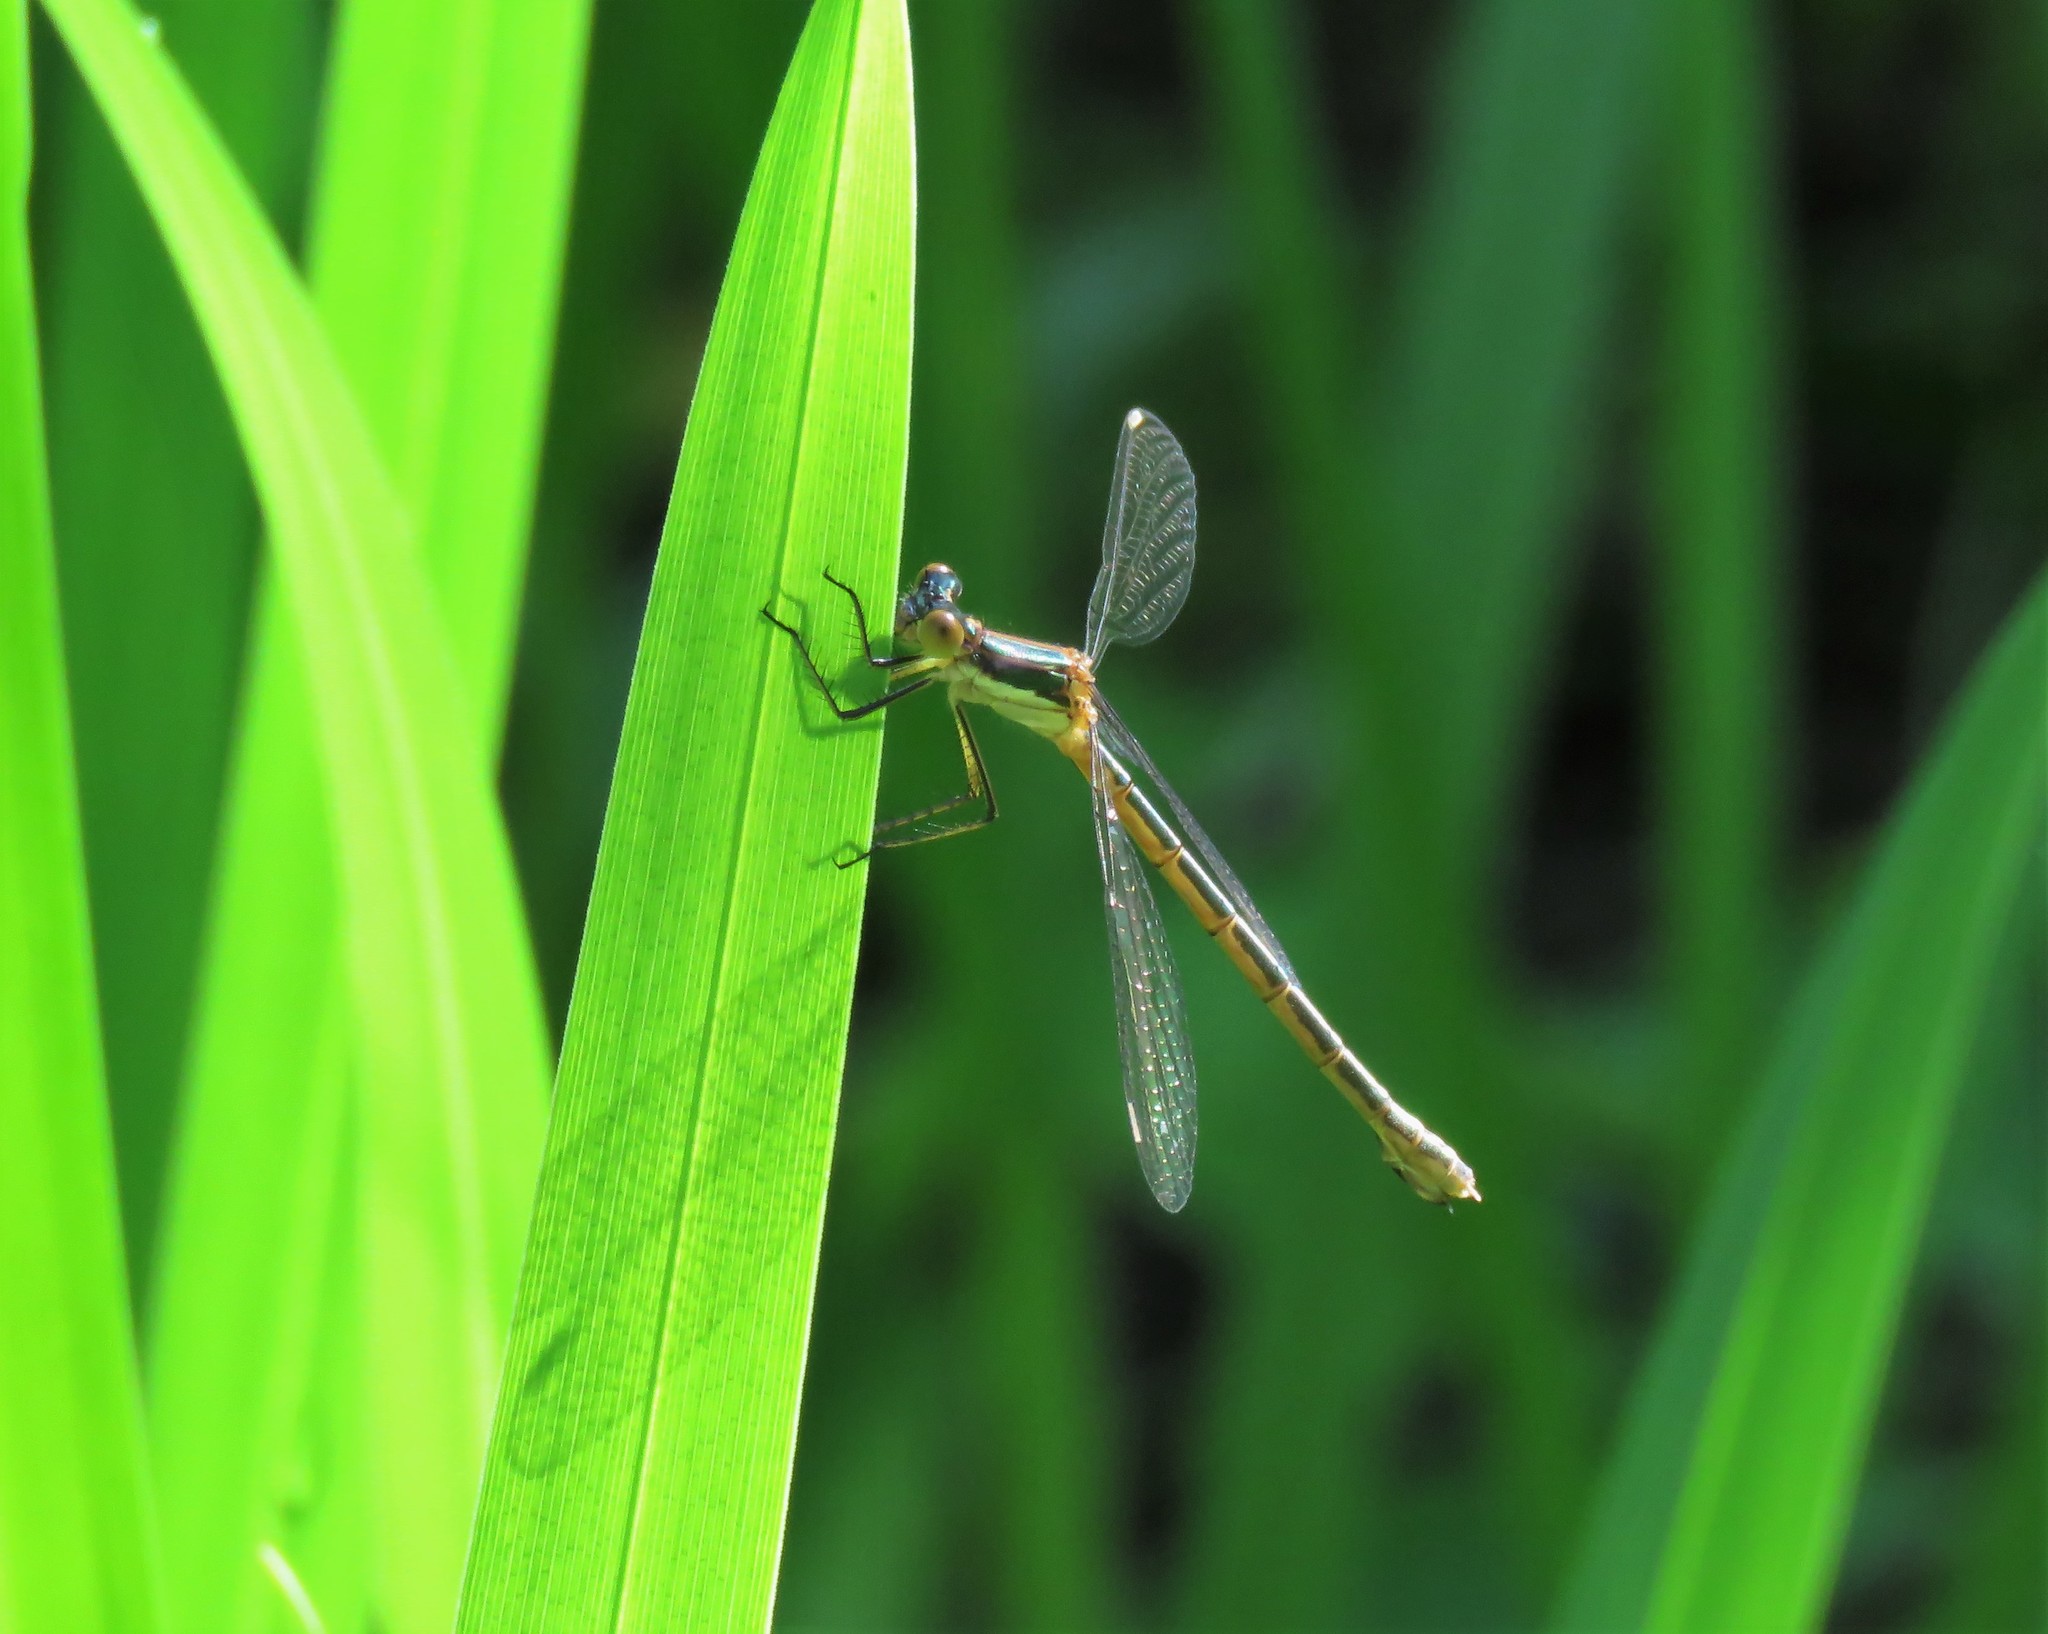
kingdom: Animalia
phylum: Arthropoda
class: Insecta
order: Odonata
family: Lestidae
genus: Lestes
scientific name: Lestes dryas
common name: Scarce emerald damselfly
